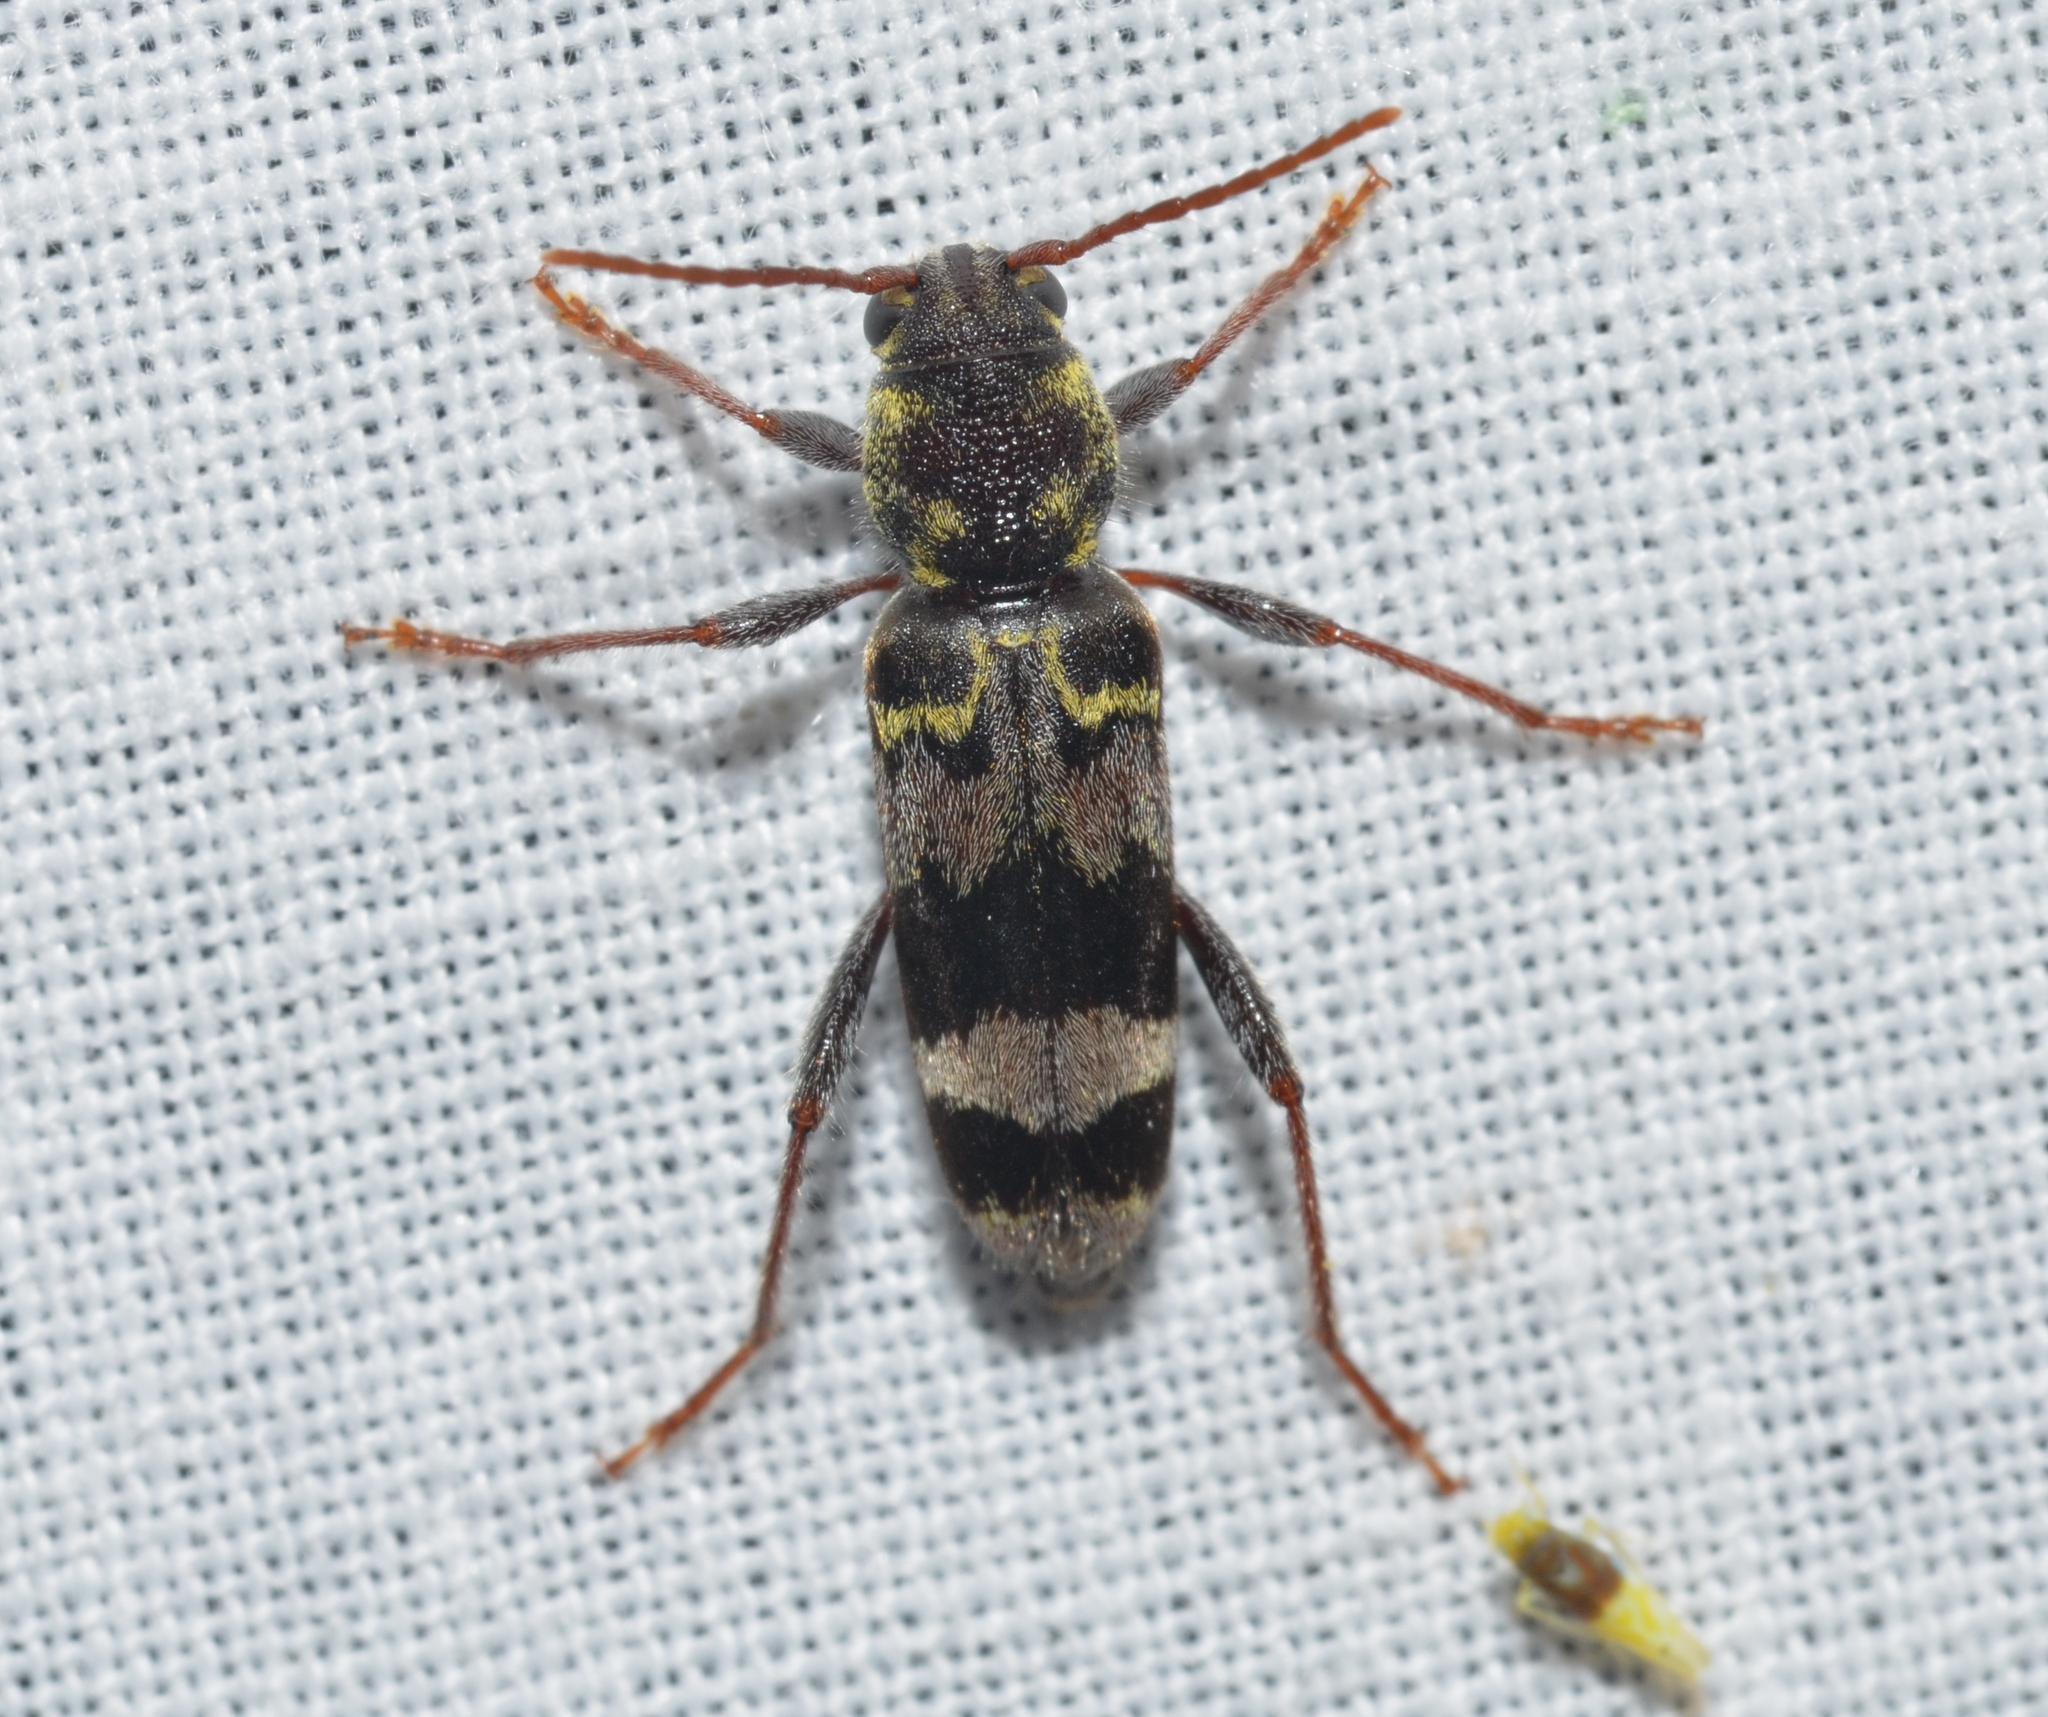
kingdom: Animalia
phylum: Arthropoda
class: Insecta
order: Coleoptera
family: Cerambycidae
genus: Xylotrechus
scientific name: Xylotrechus colonus
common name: Long-horned beetle
